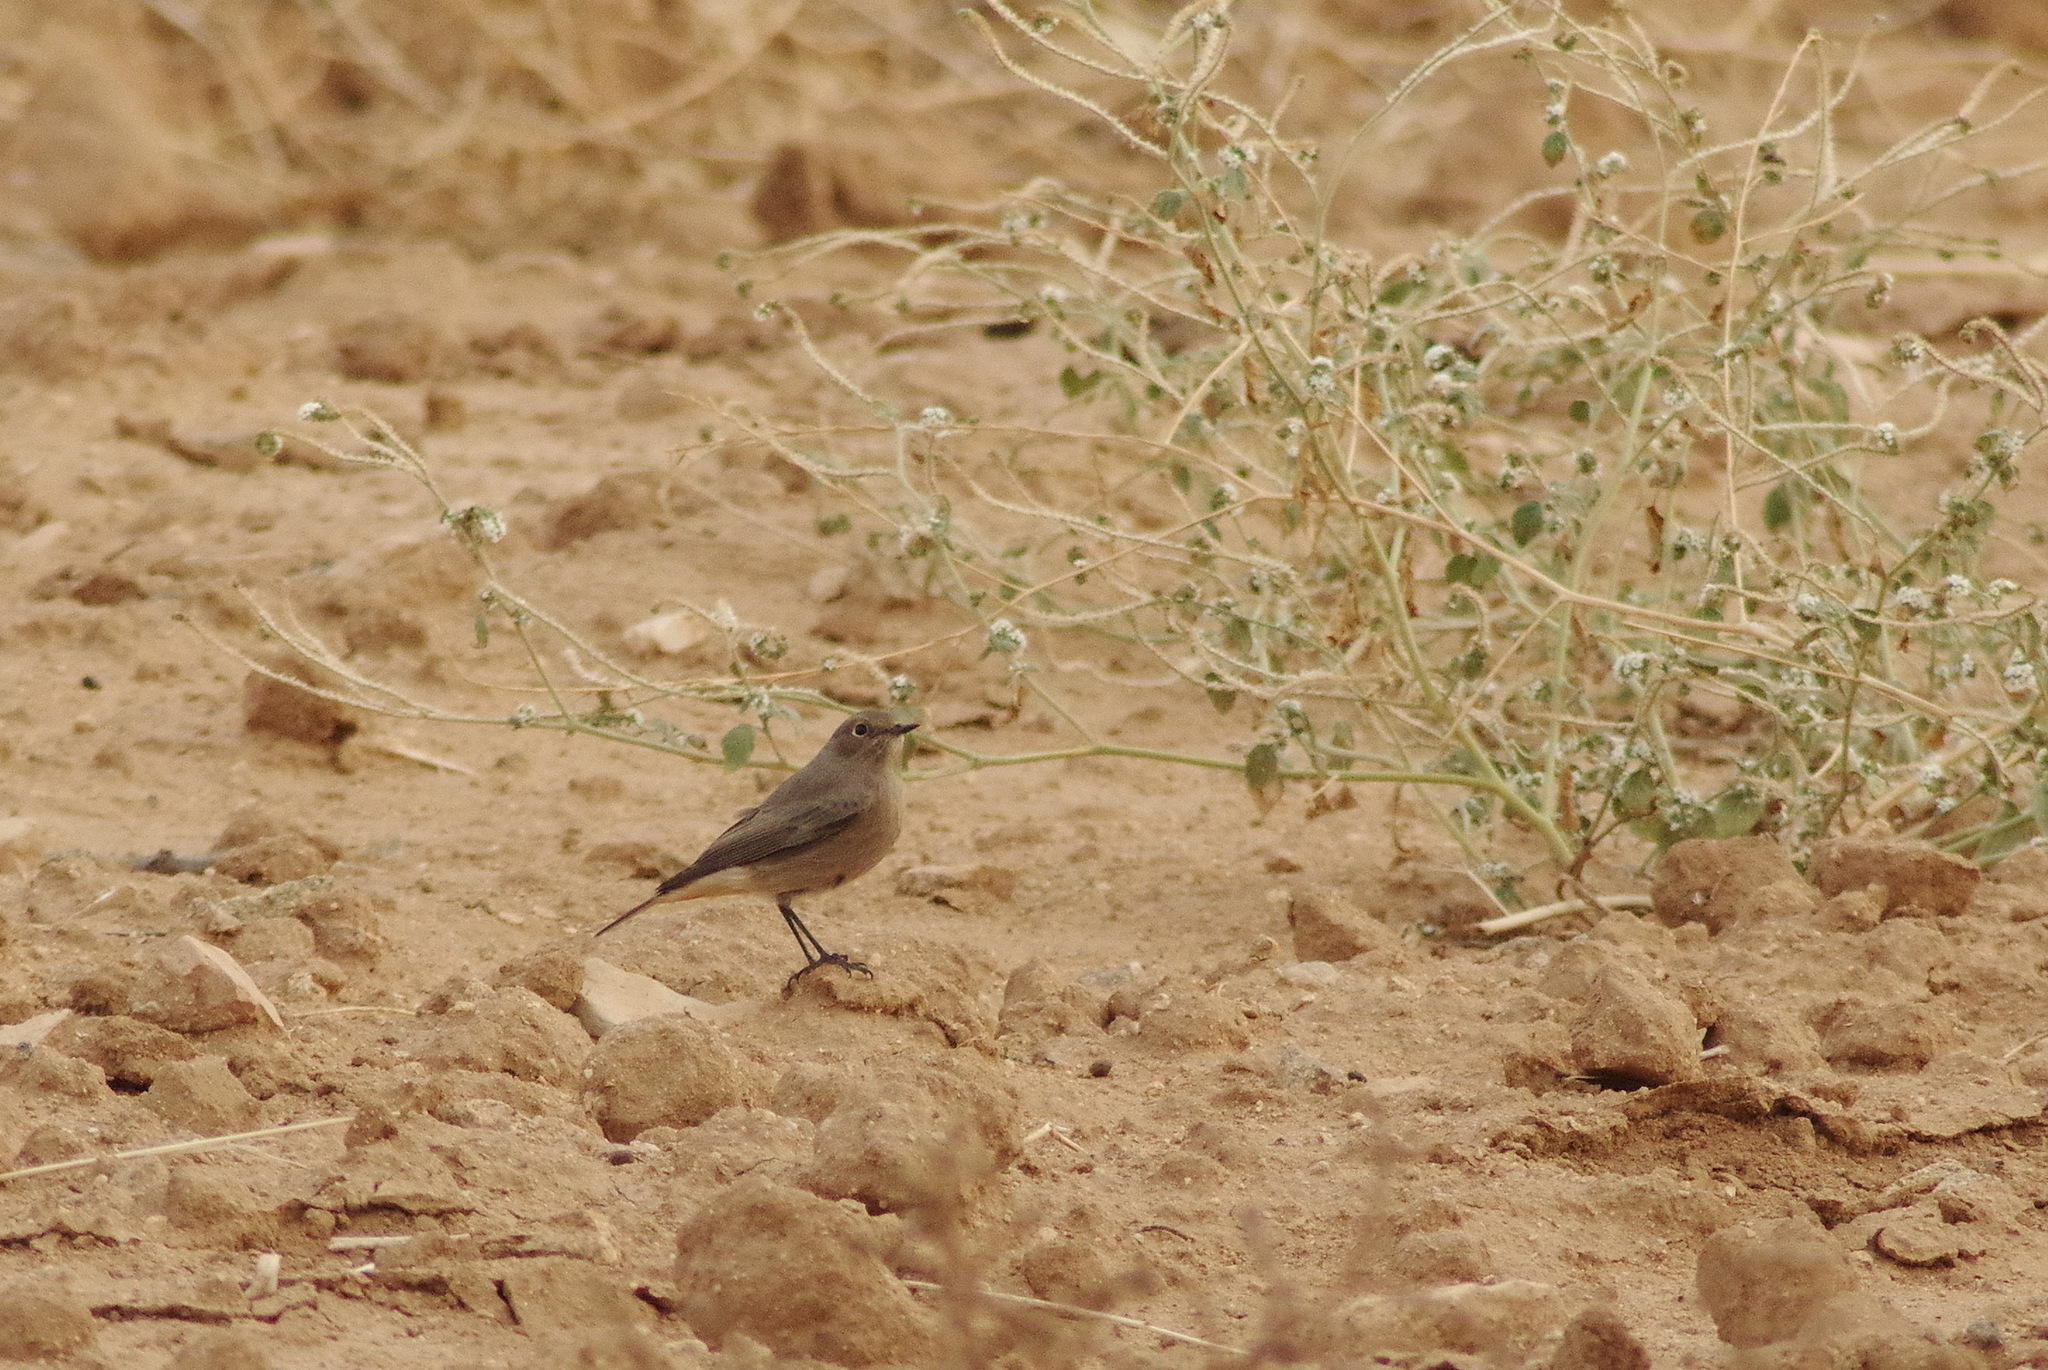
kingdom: Animalia
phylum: Chordata
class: Aves
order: Passeriformes
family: Muscicapidae
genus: Phoenicurus
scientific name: Phoenicurus ochruros
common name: Black redstart
